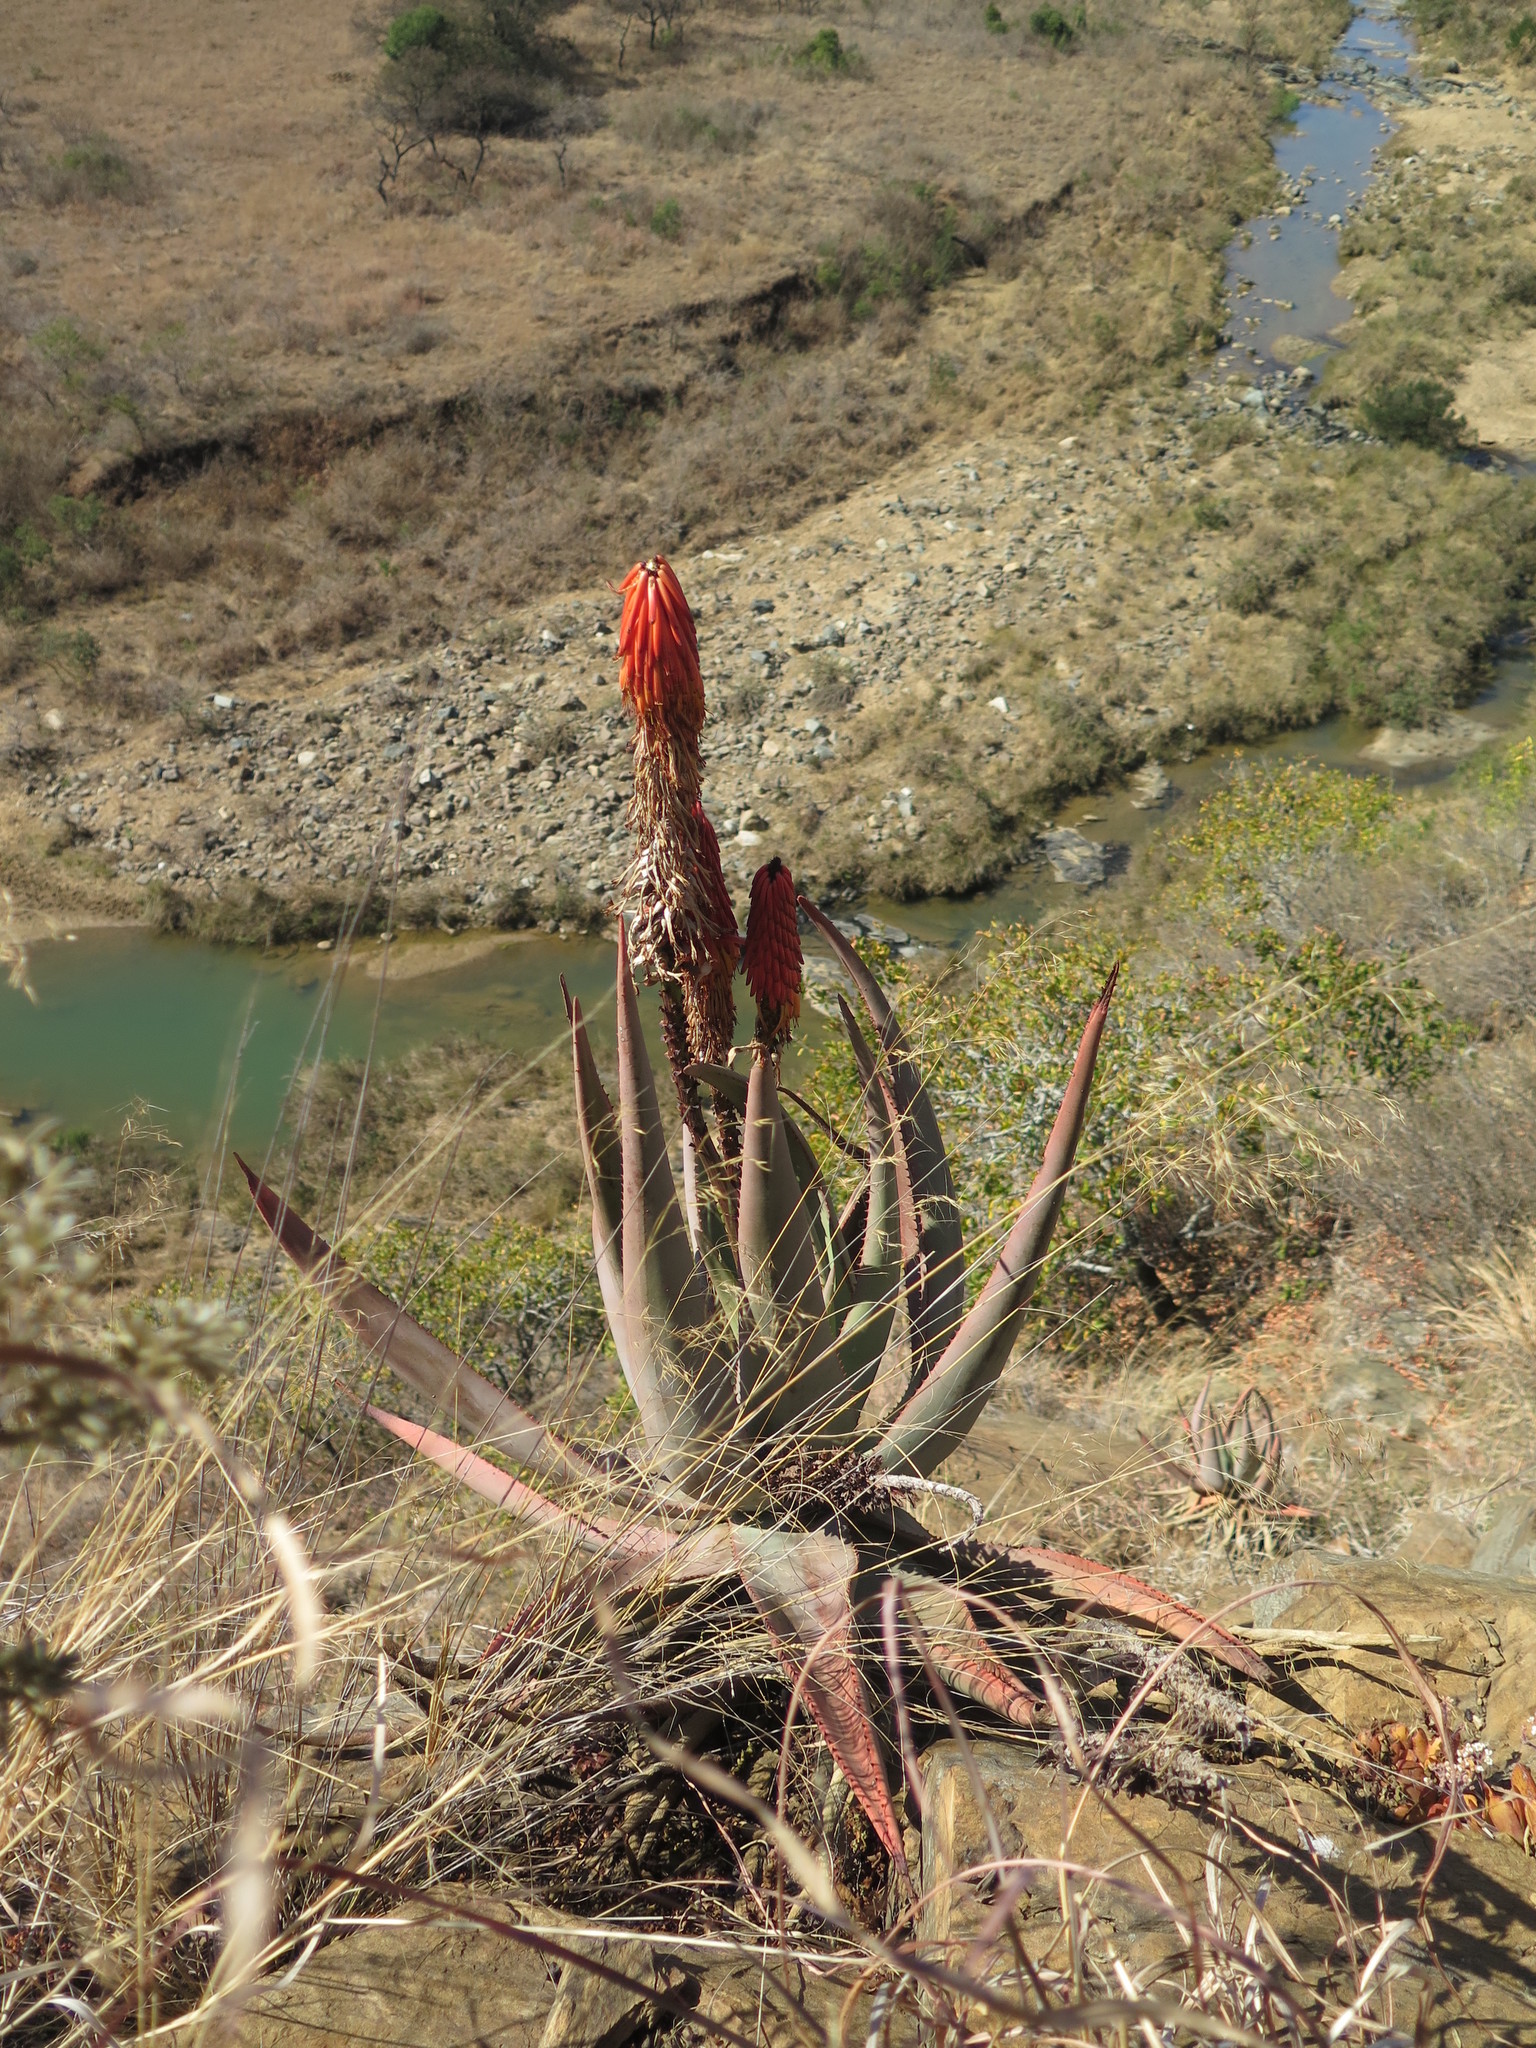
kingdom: Plantae
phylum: Tracheophyta
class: Liliopsida
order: Asparagales
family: Asphodelaceae
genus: Aloe
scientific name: Aloe reitzii
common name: Reitz's aloe
